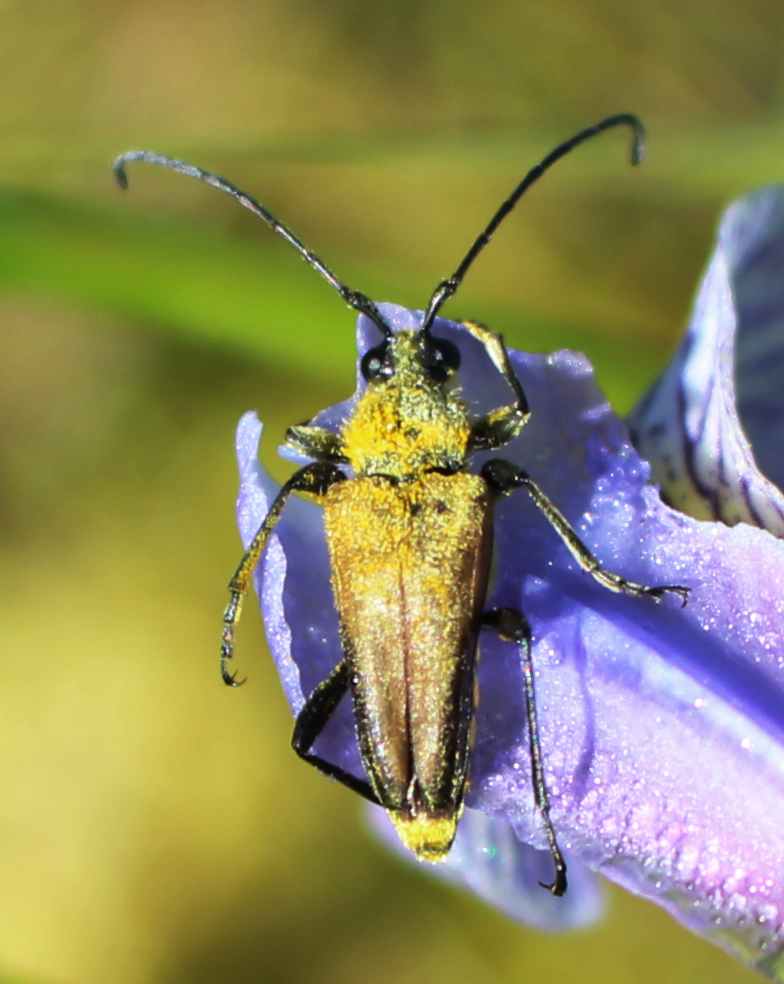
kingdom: Animalia
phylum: Arthropoda
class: Insecta
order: Coleoptera
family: Cerambycidae
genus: Cosmosalia
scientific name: Cosmosalia chrysocoma
